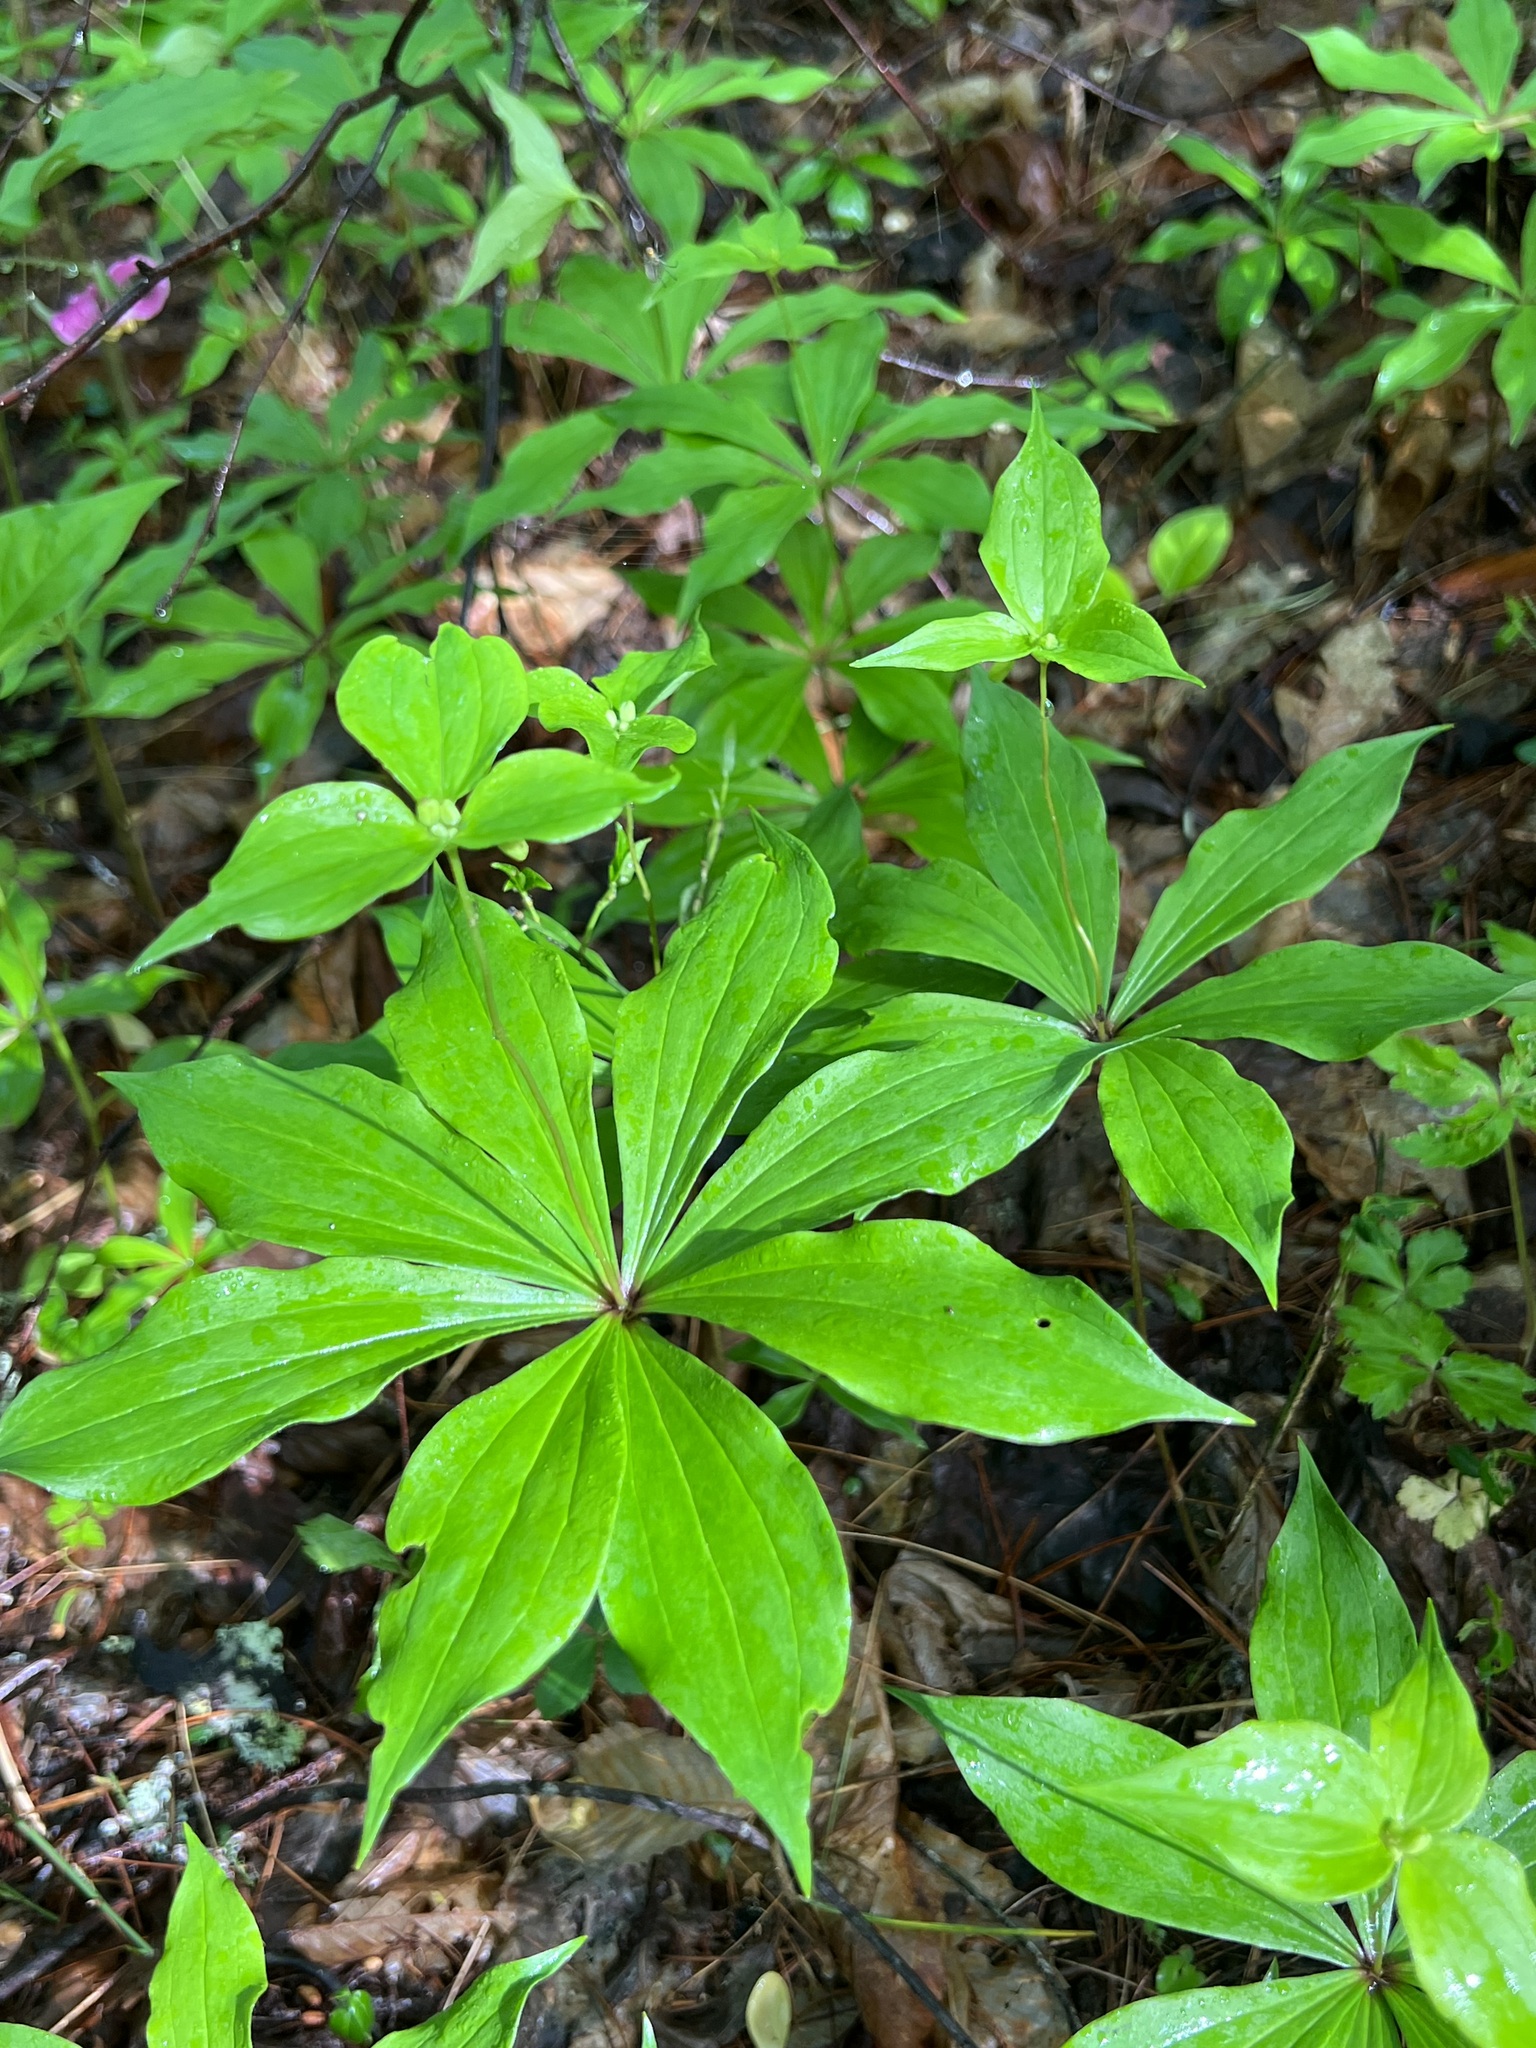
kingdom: Plantae
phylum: Tracheophyta
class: Liliopsida
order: Liliales
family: Liliaceae
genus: Medeola
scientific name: Medeola virginiana
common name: Indian cucumber-root
